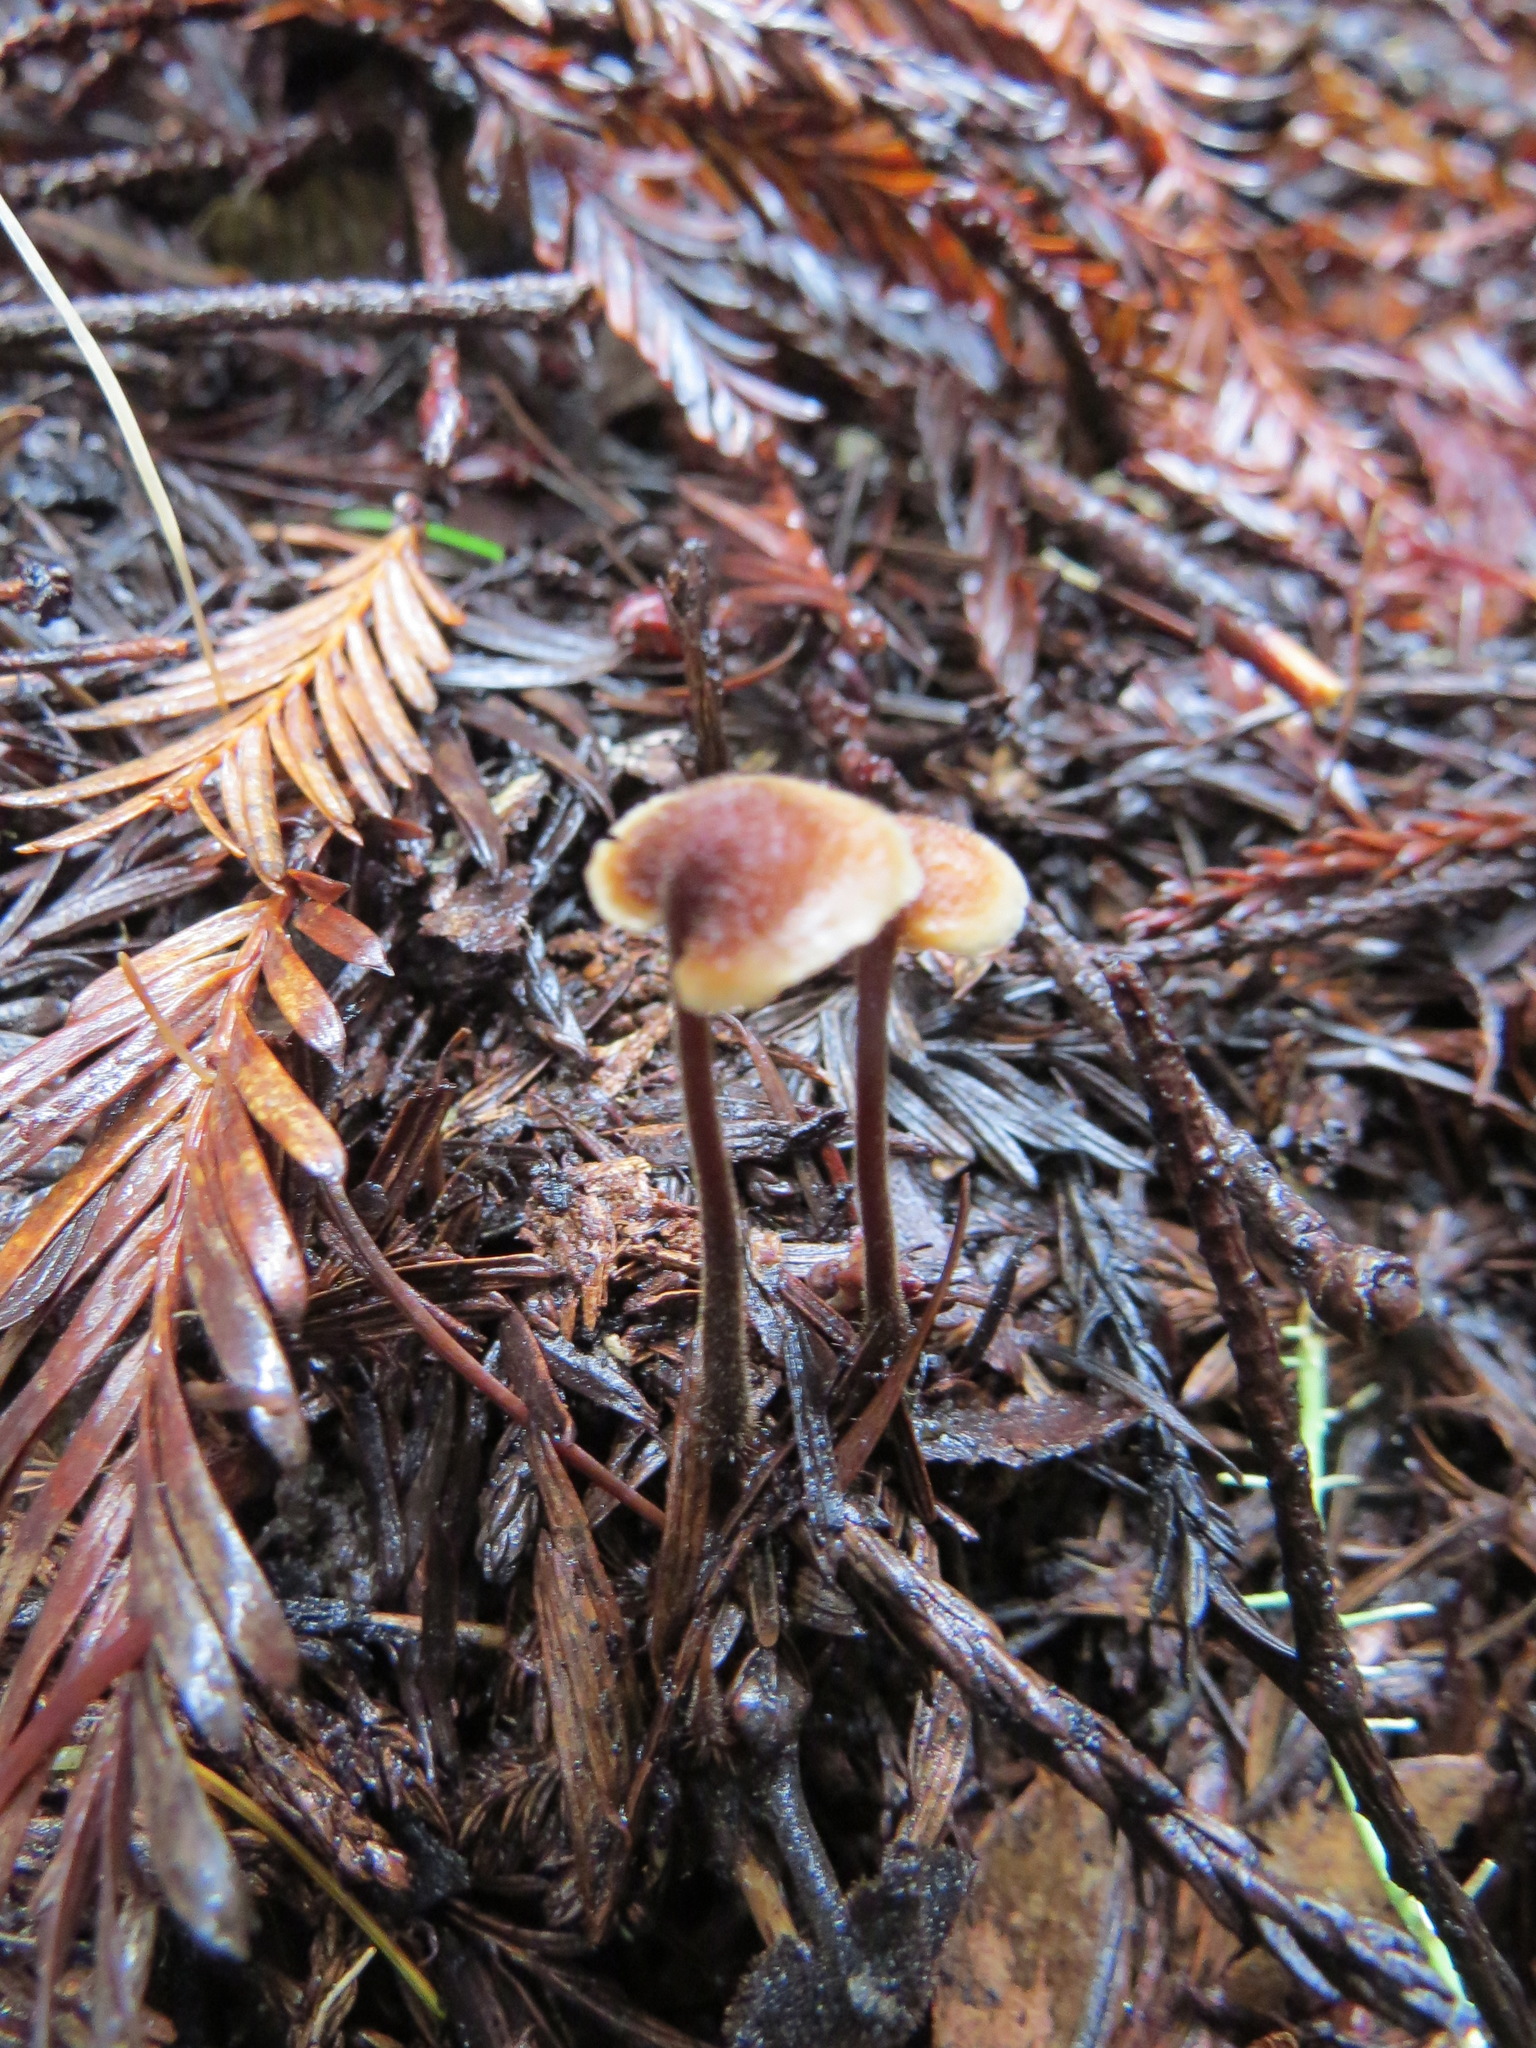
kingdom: Fungi
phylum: Basidiomycota
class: Agaricomycetes
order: Russulales
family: Auriscalpiaceae
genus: Auriscalpium
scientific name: Auriscalpium vulgare
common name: Earpick fungus
